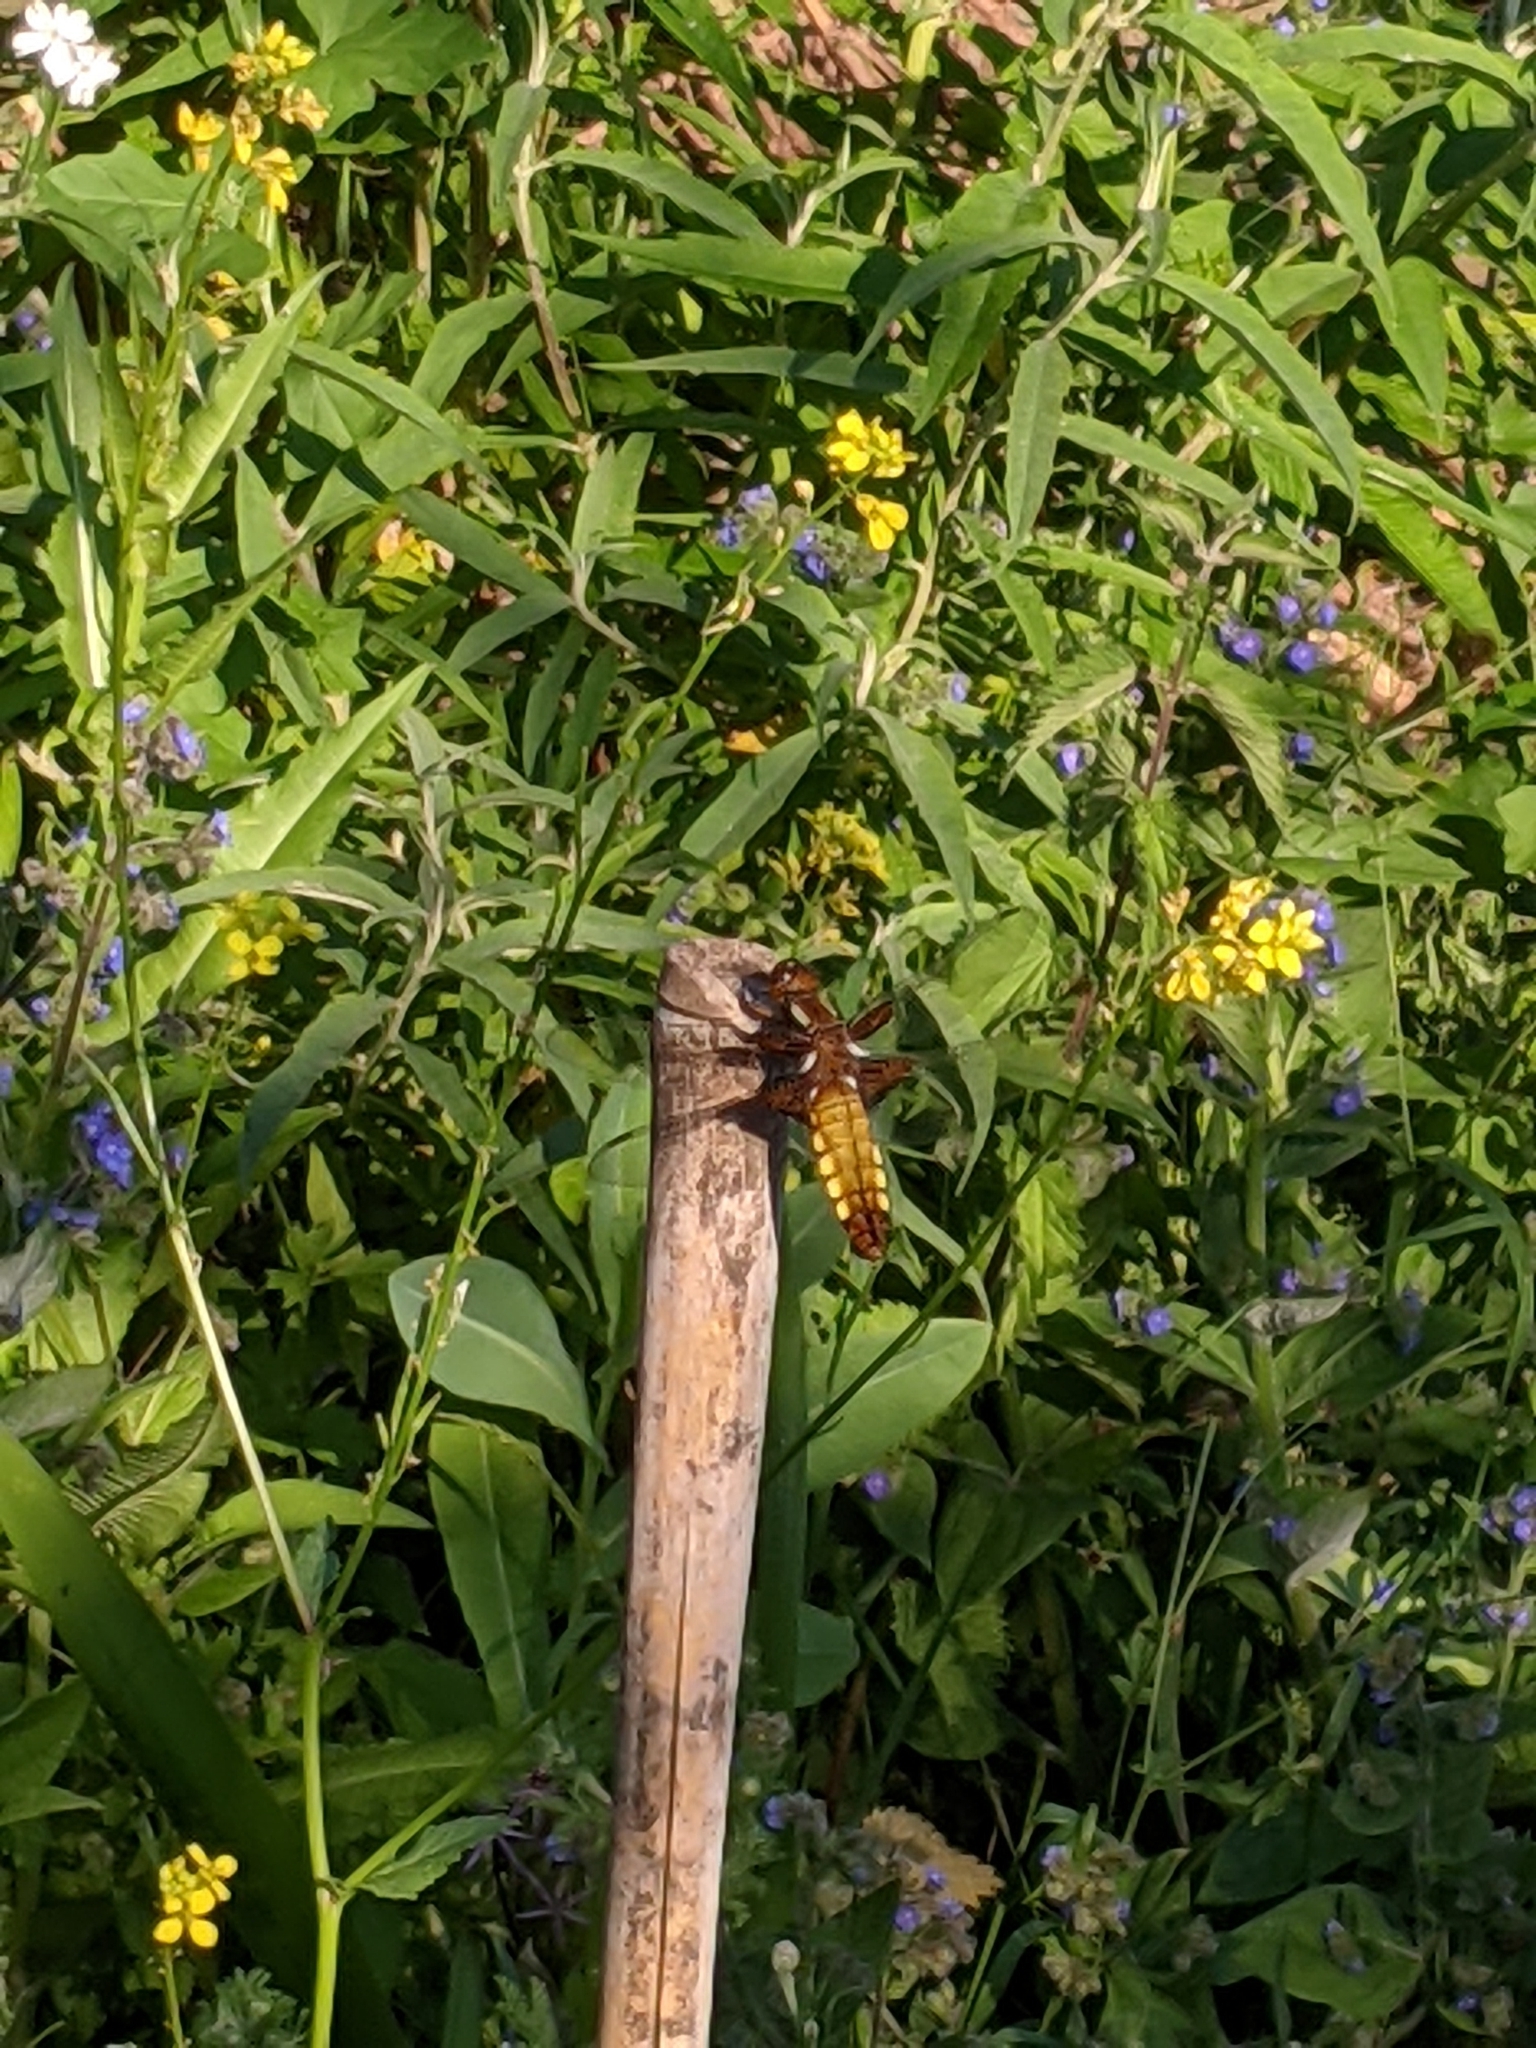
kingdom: Animalia
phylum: Arthropoda
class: Insecta
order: Odonata
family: Libellulidae
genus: Libellula
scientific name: Libellula depressa
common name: Broad-bodied chaser
